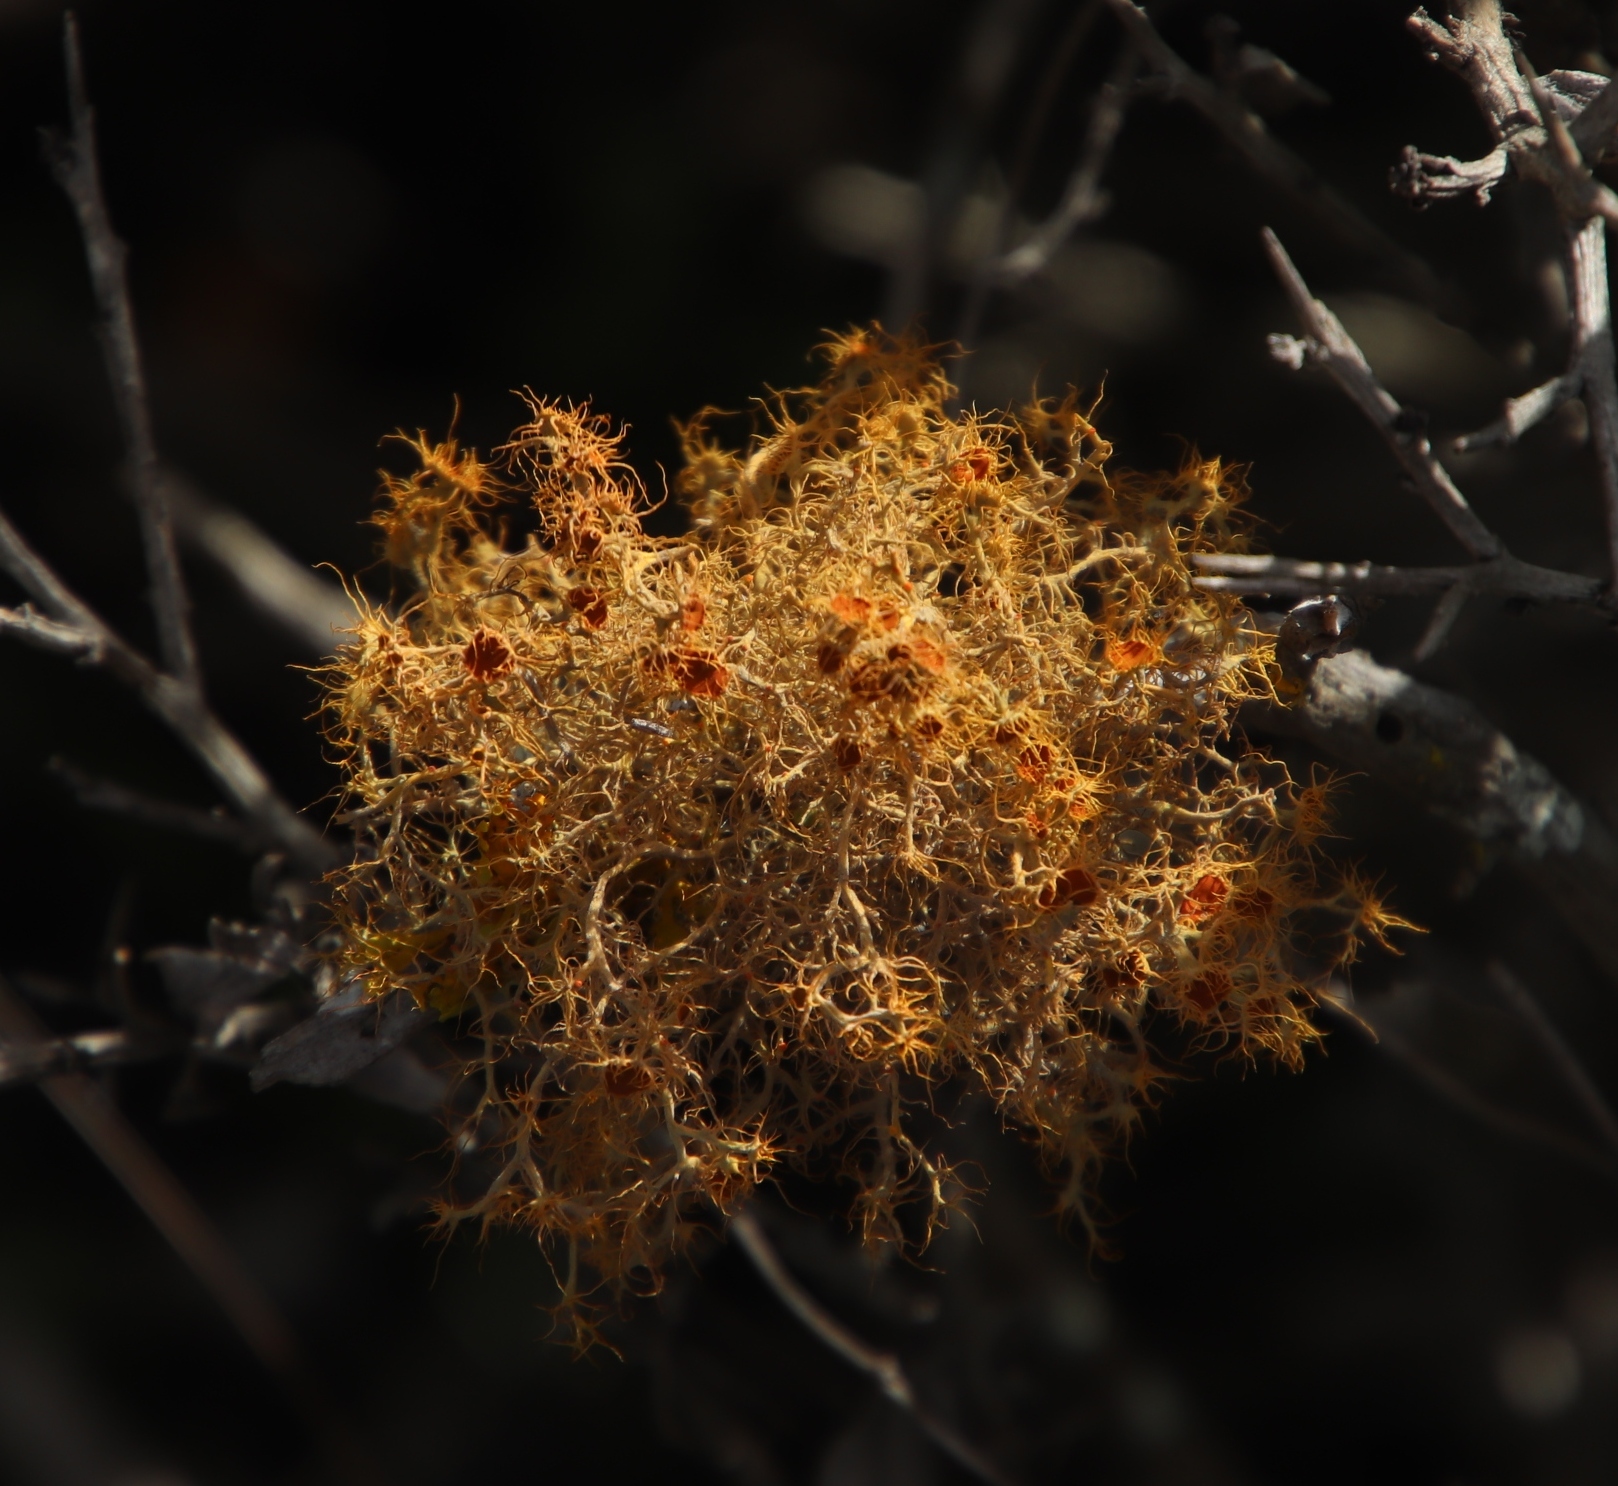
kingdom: Fungi
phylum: Ascomycota
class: Lecanoromycetes
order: Teloschistales
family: Teloschistaceae
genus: Teloschistes
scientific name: Teloschistes capensis
